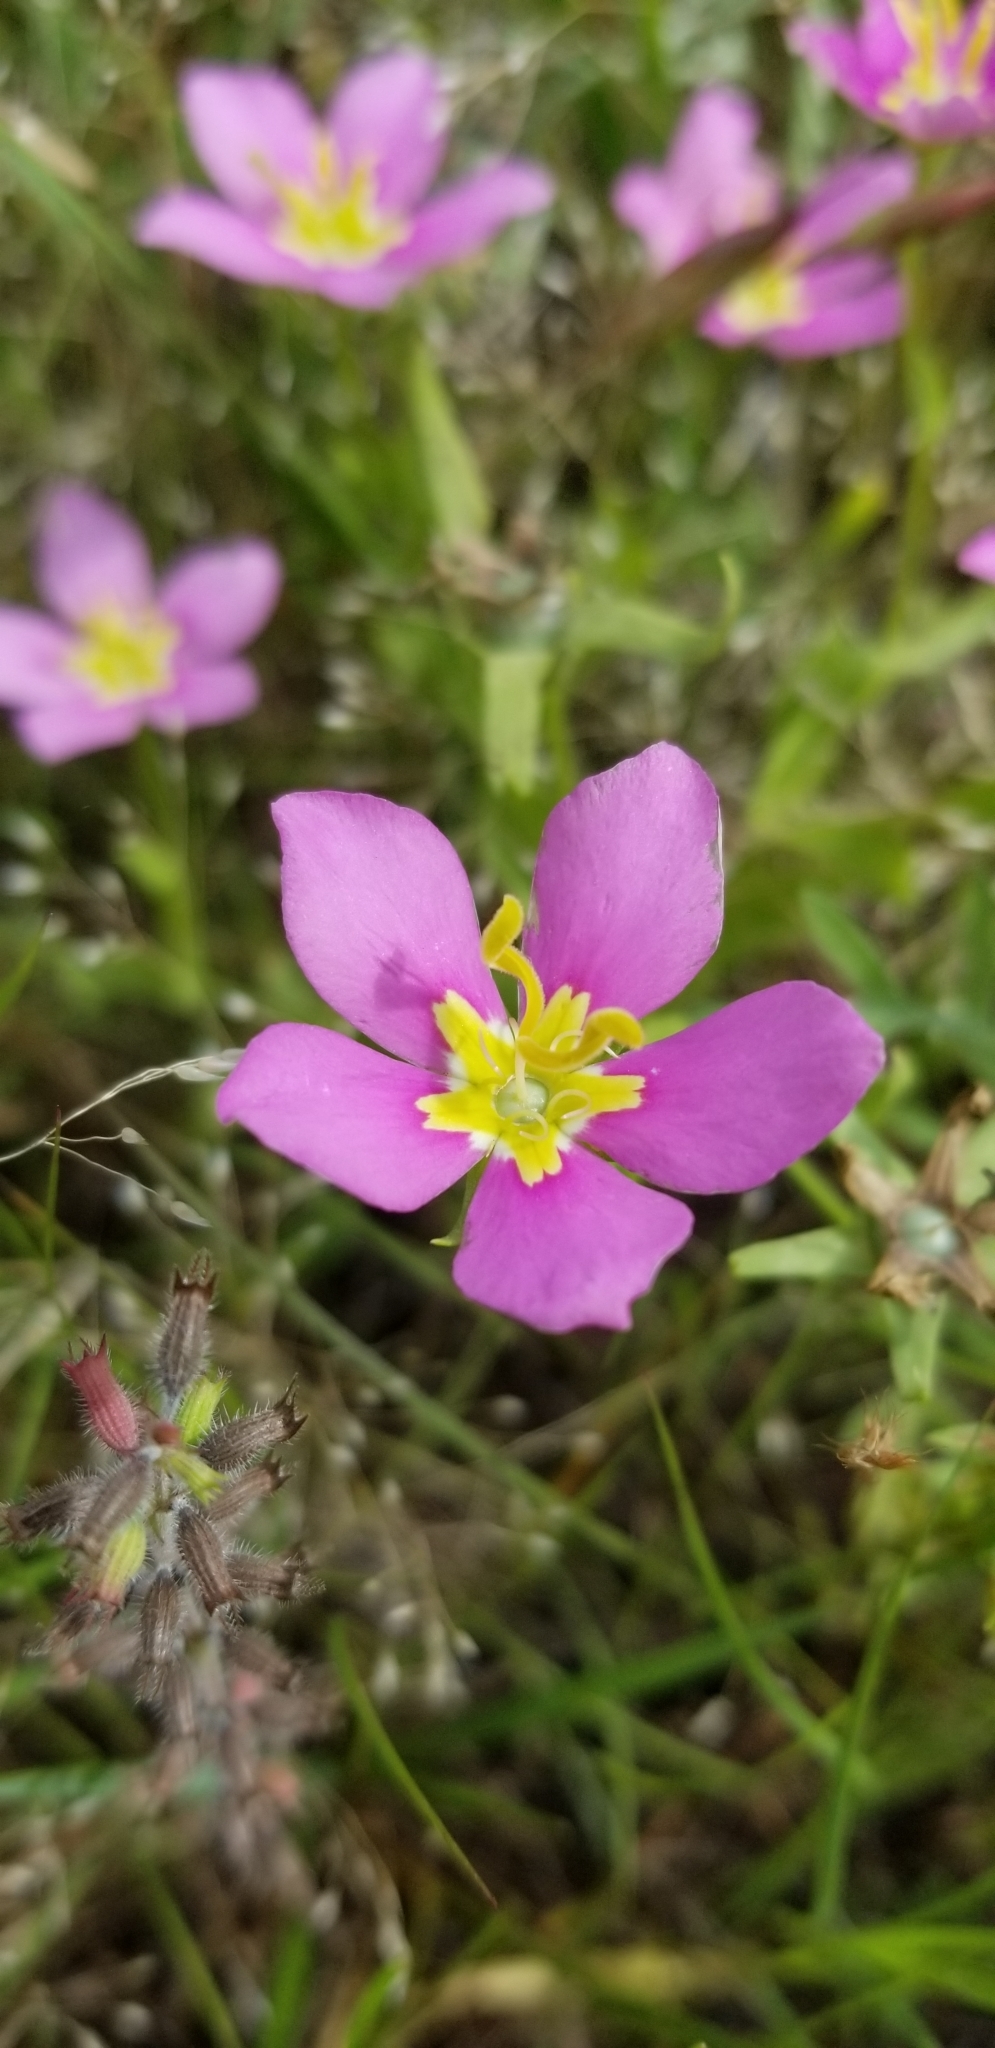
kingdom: Plantae
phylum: Tracheophyta
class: Magnoliopsida
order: Gentianales
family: Gentianaceae
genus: Sabatia
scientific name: Sabatia campestris
